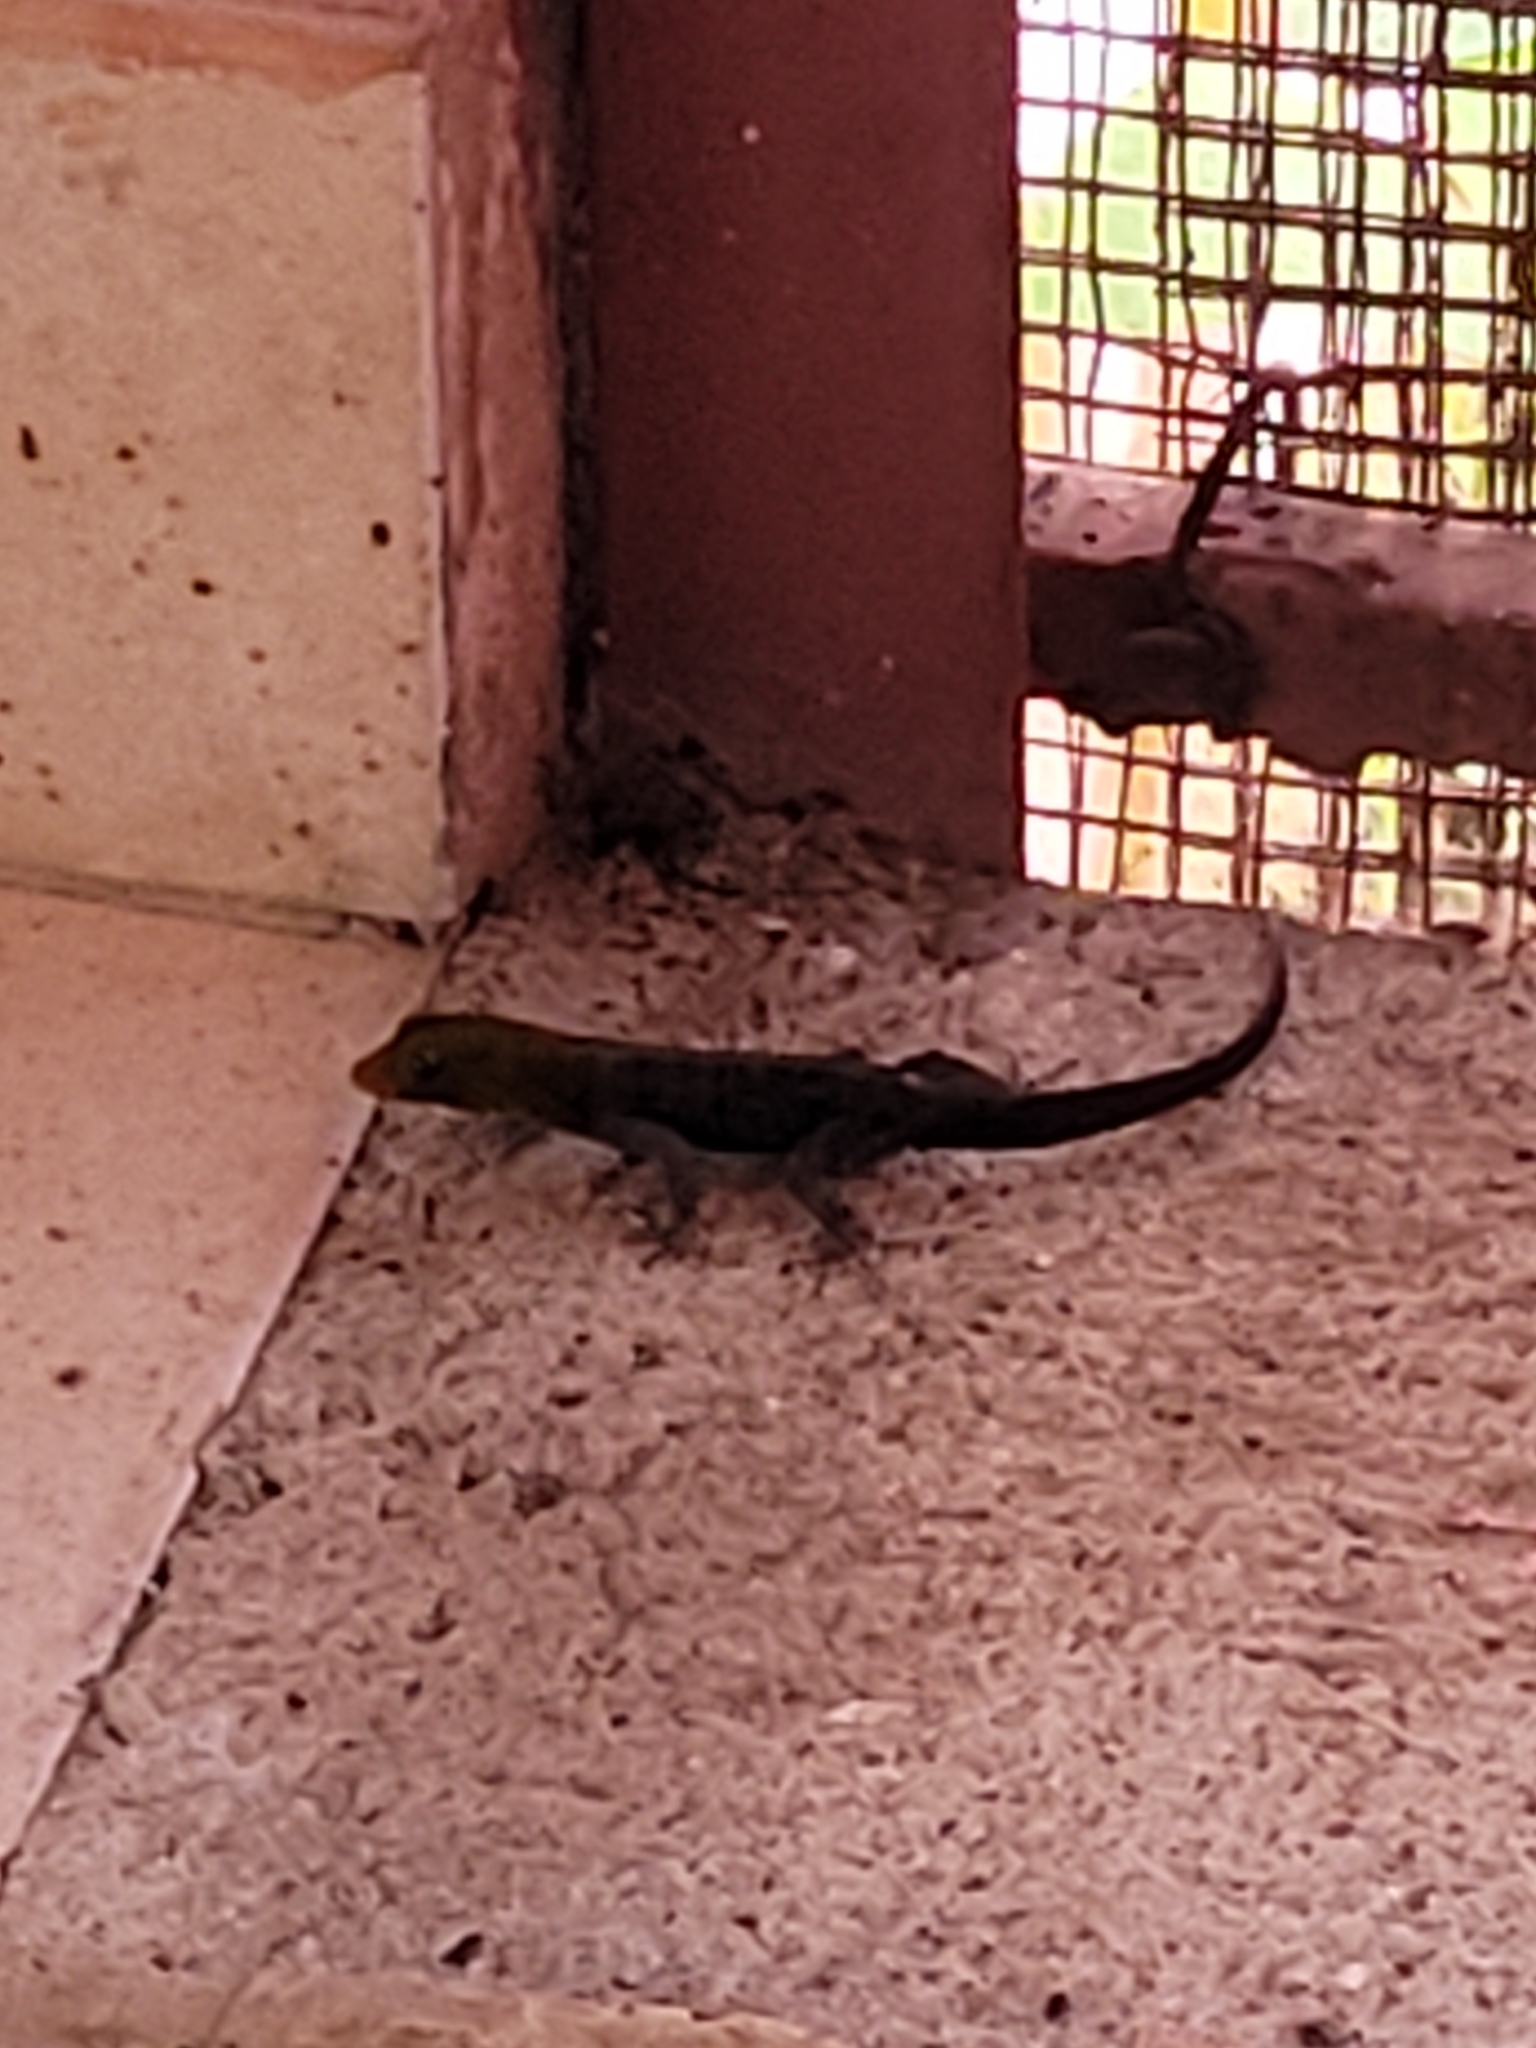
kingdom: Animalia
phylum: Chordata
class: Squamata
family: Sphaerodactylidae
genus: Gonatodes
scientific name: Gonatodes albogularis
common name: Yellow-headed gecko
